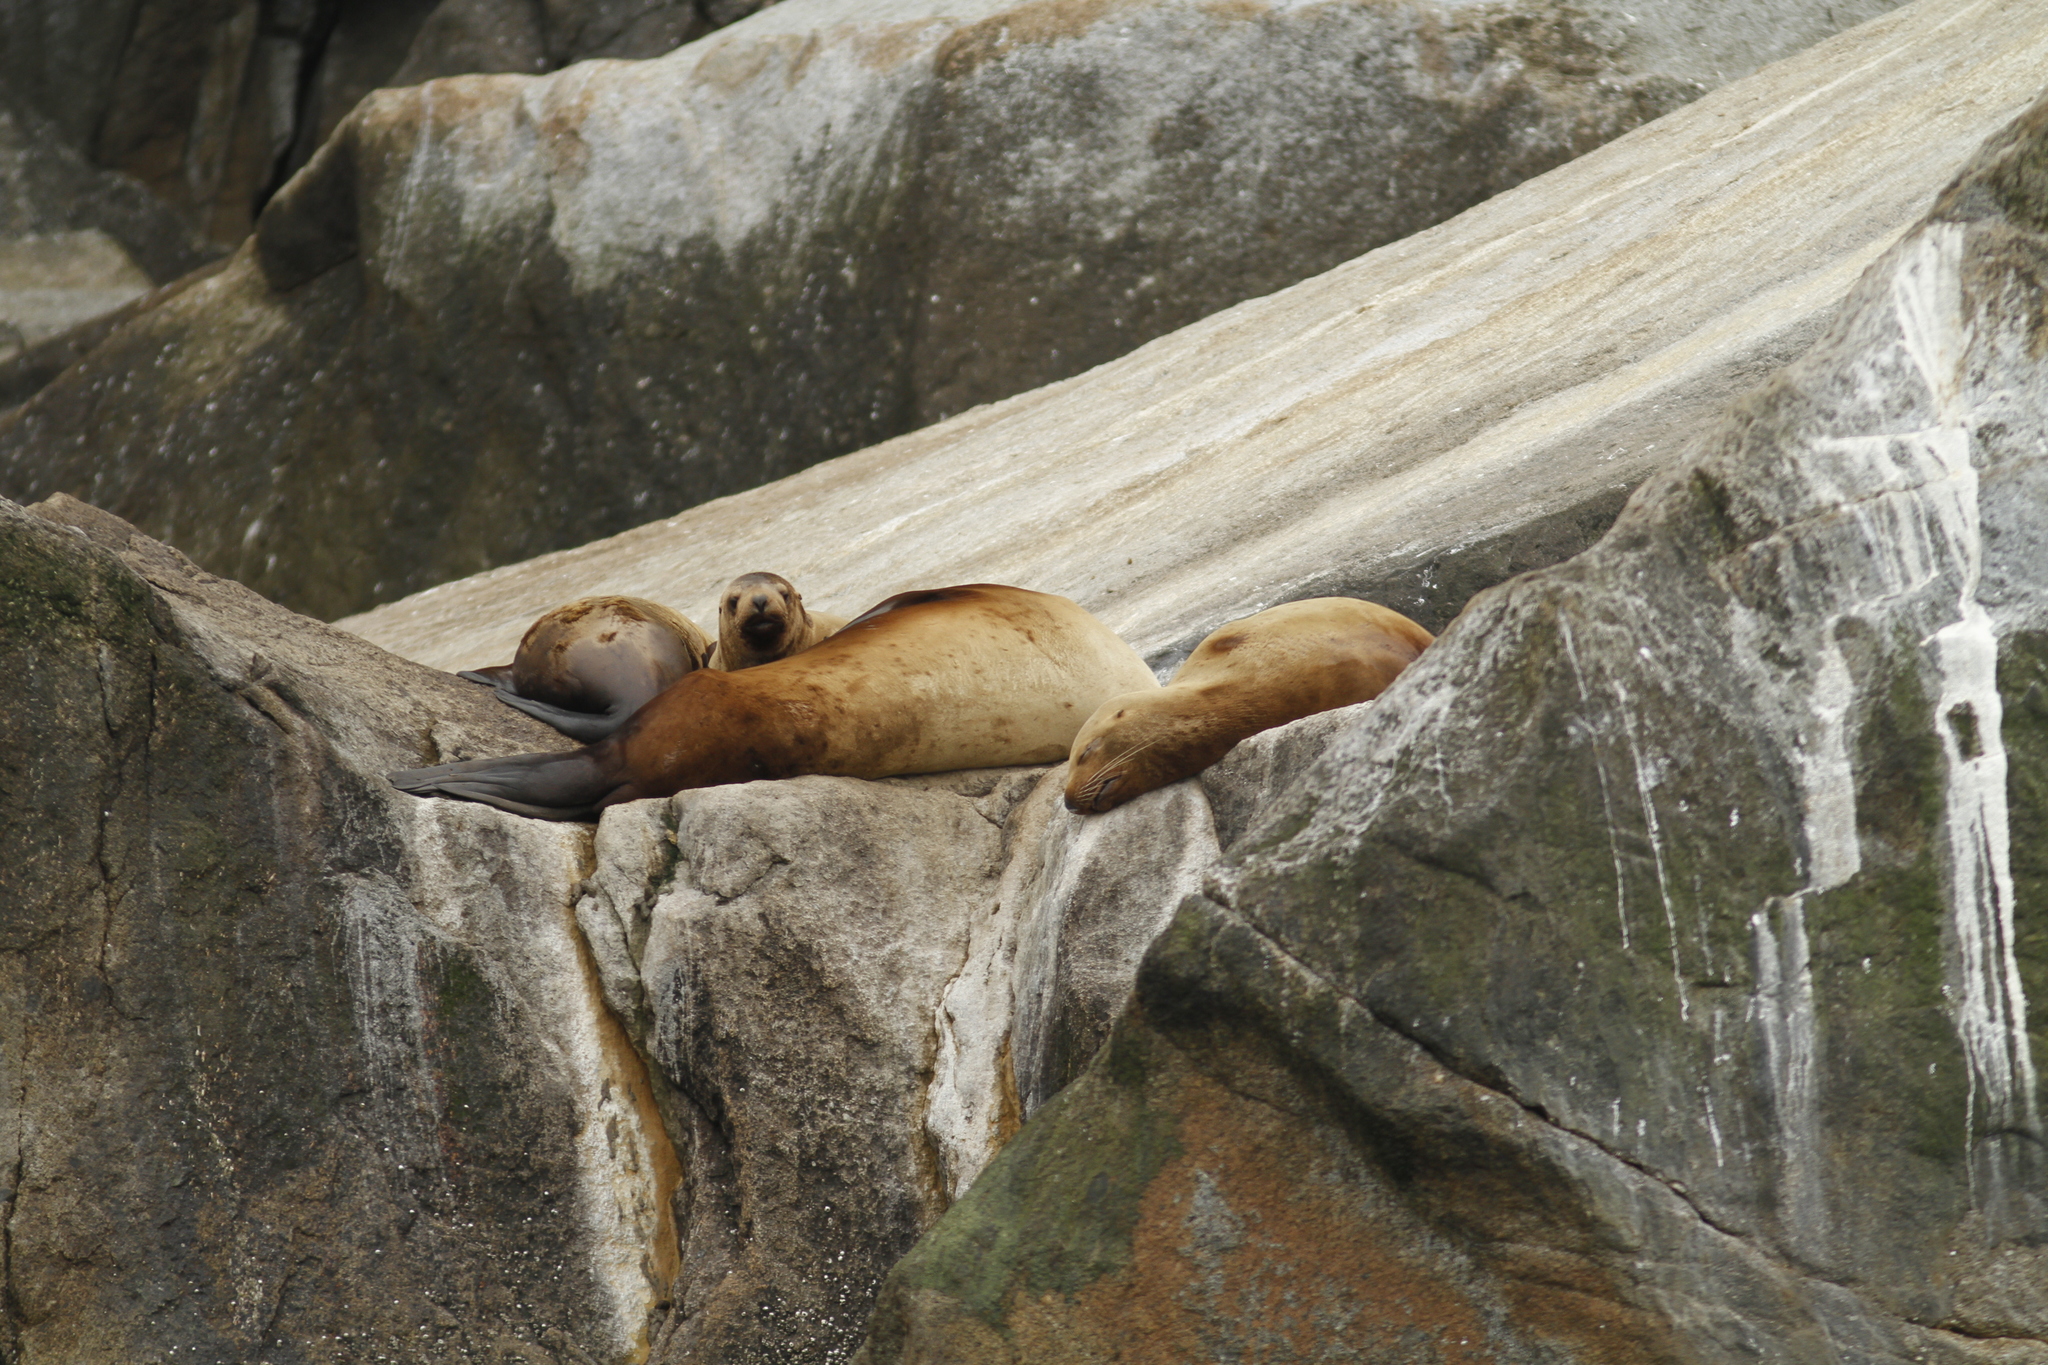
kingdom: Animalia
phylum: Chordata
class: Mammalia
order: Carnivora
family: Otariidae
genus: Eumetopias
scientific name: Eumetopias jubatus
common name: Steller sea lion
